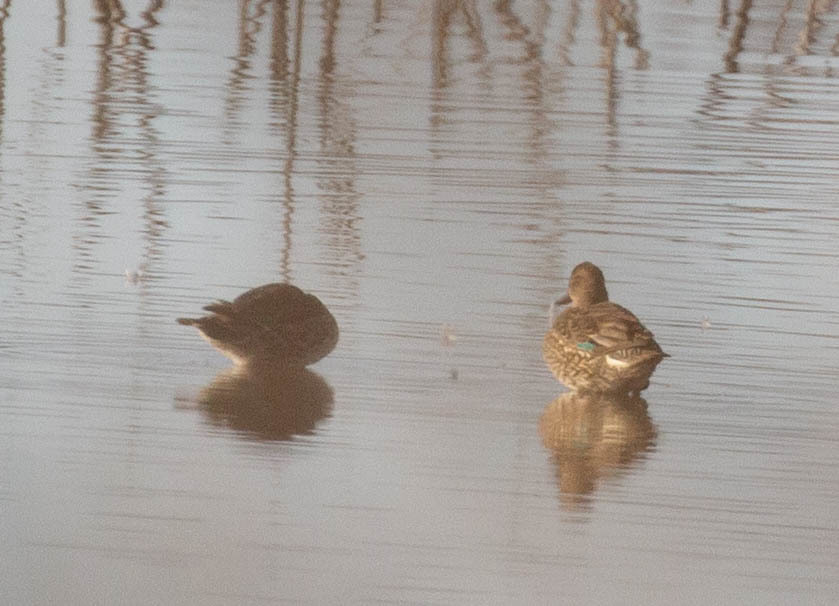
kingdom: Animalia
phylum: Chordata
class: Aves
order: Anseriformes
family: Anatidae
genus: Anas
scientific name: Anas crecca
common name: Eurasian teal
